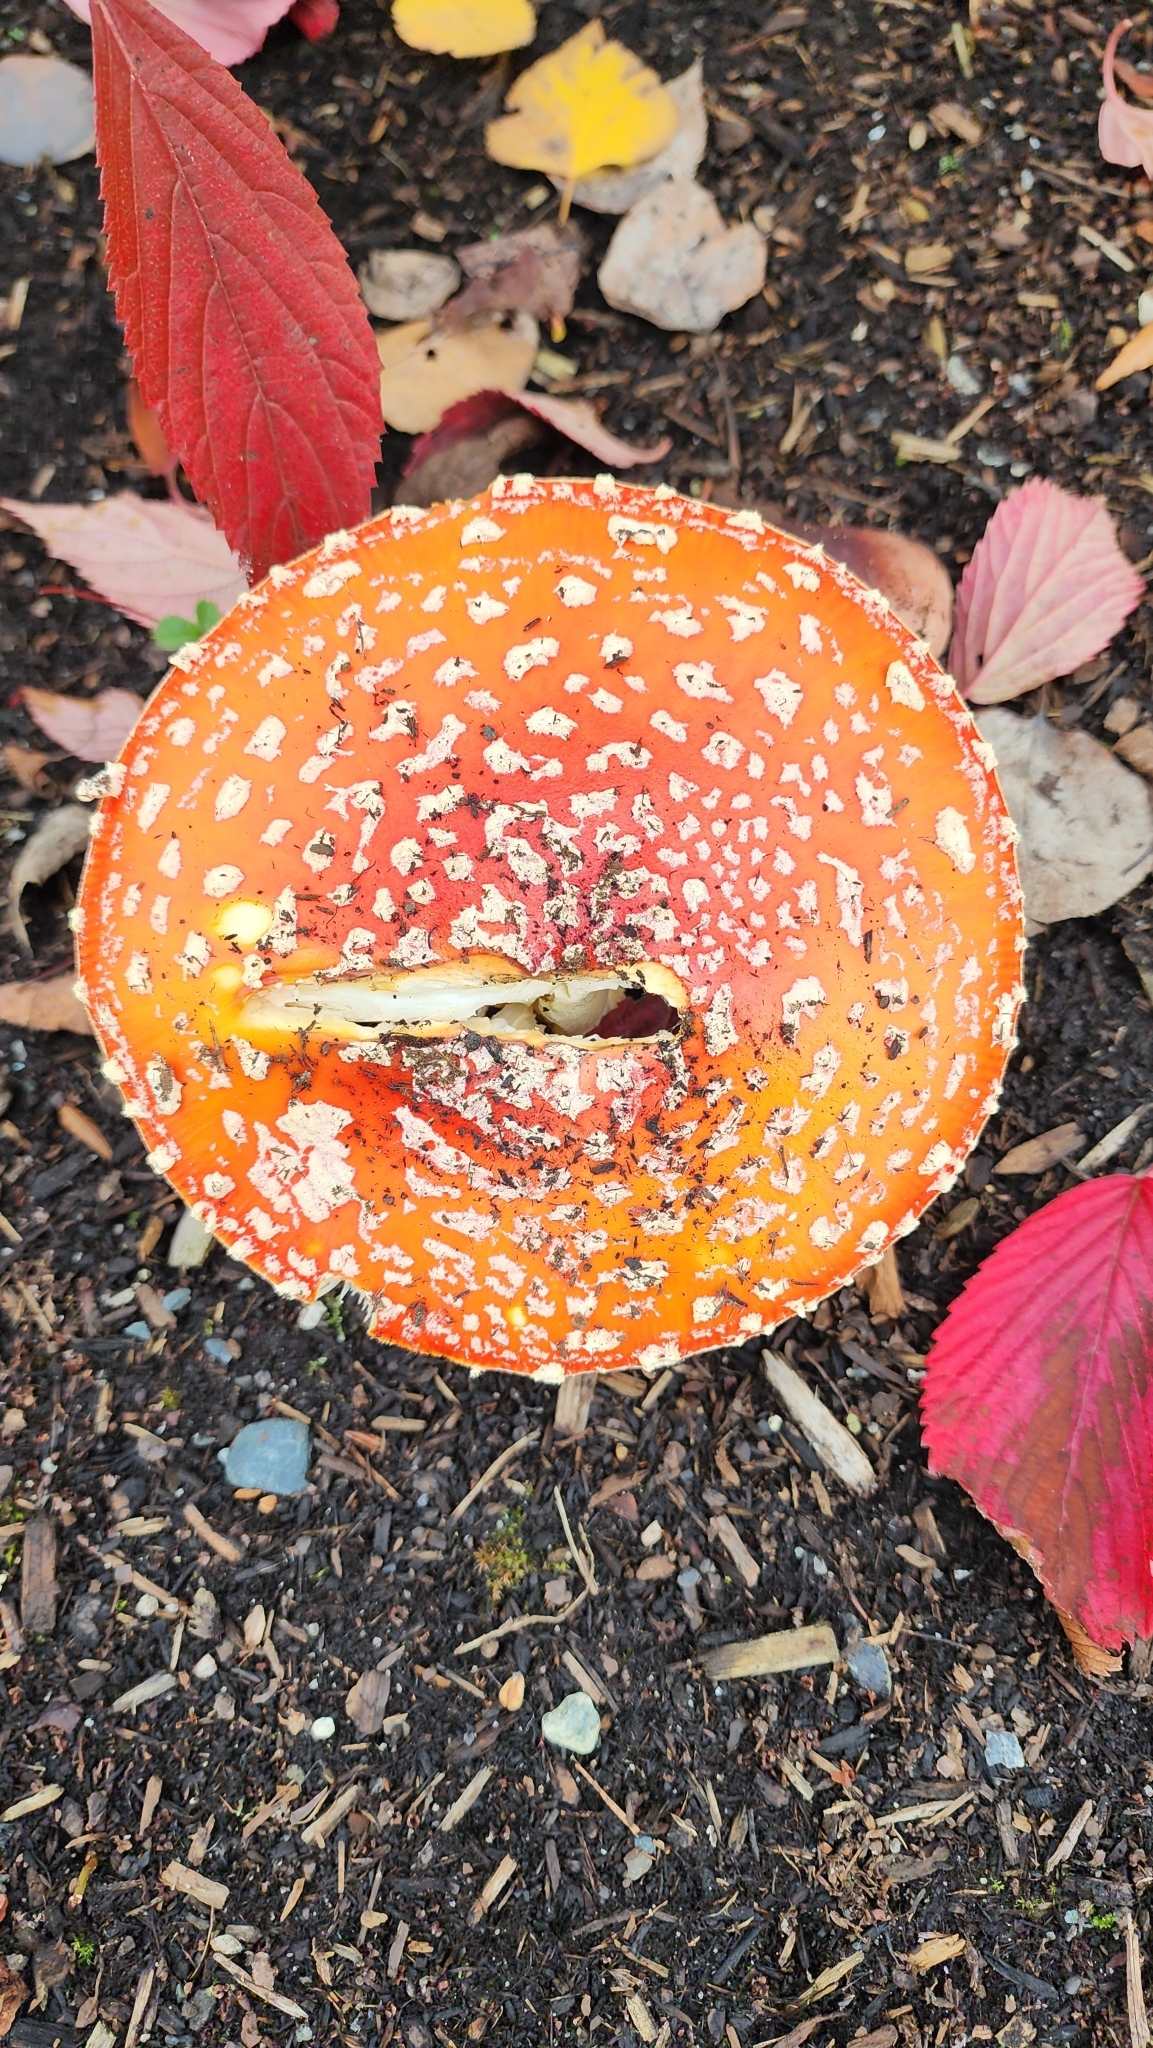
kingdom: Fungi
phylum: Basidiomycota
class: Agaricomycetes
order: Agaricales
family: Amanitaceae
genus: Amanita
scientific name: Amanita muscaria
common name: Fly agaric
